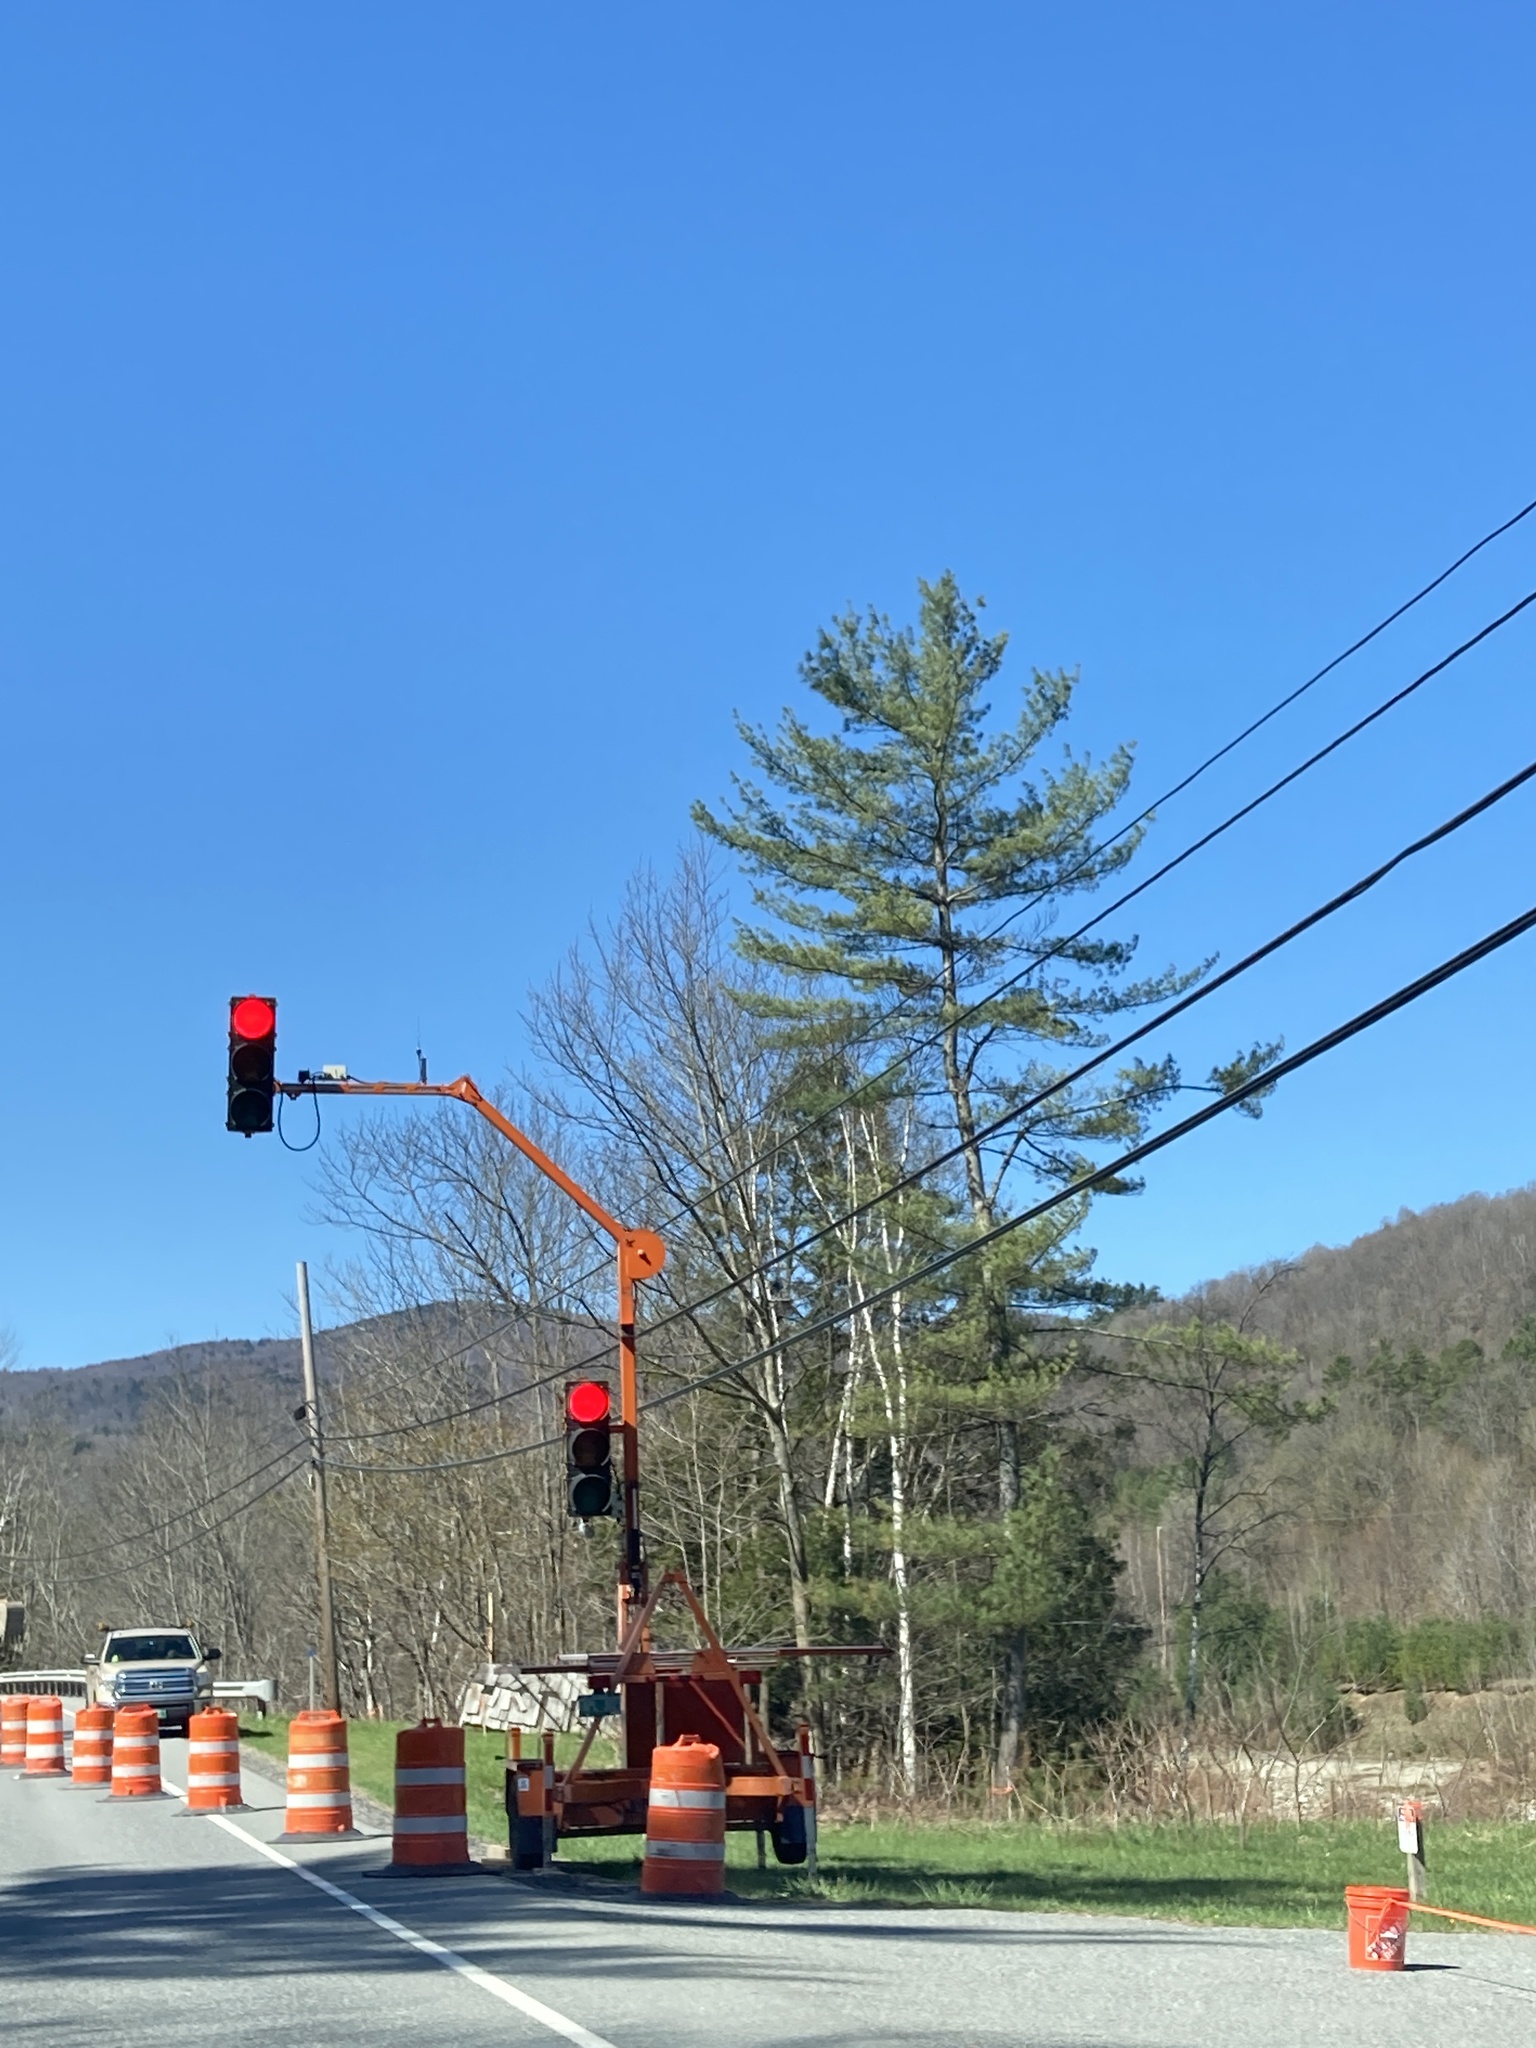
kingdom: Plantae
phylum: Tracheophyta
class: Pinopsida
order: Pinales
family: Pinaceae
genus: Pinus
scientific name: Pinus strobus
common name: Weymouth pine
